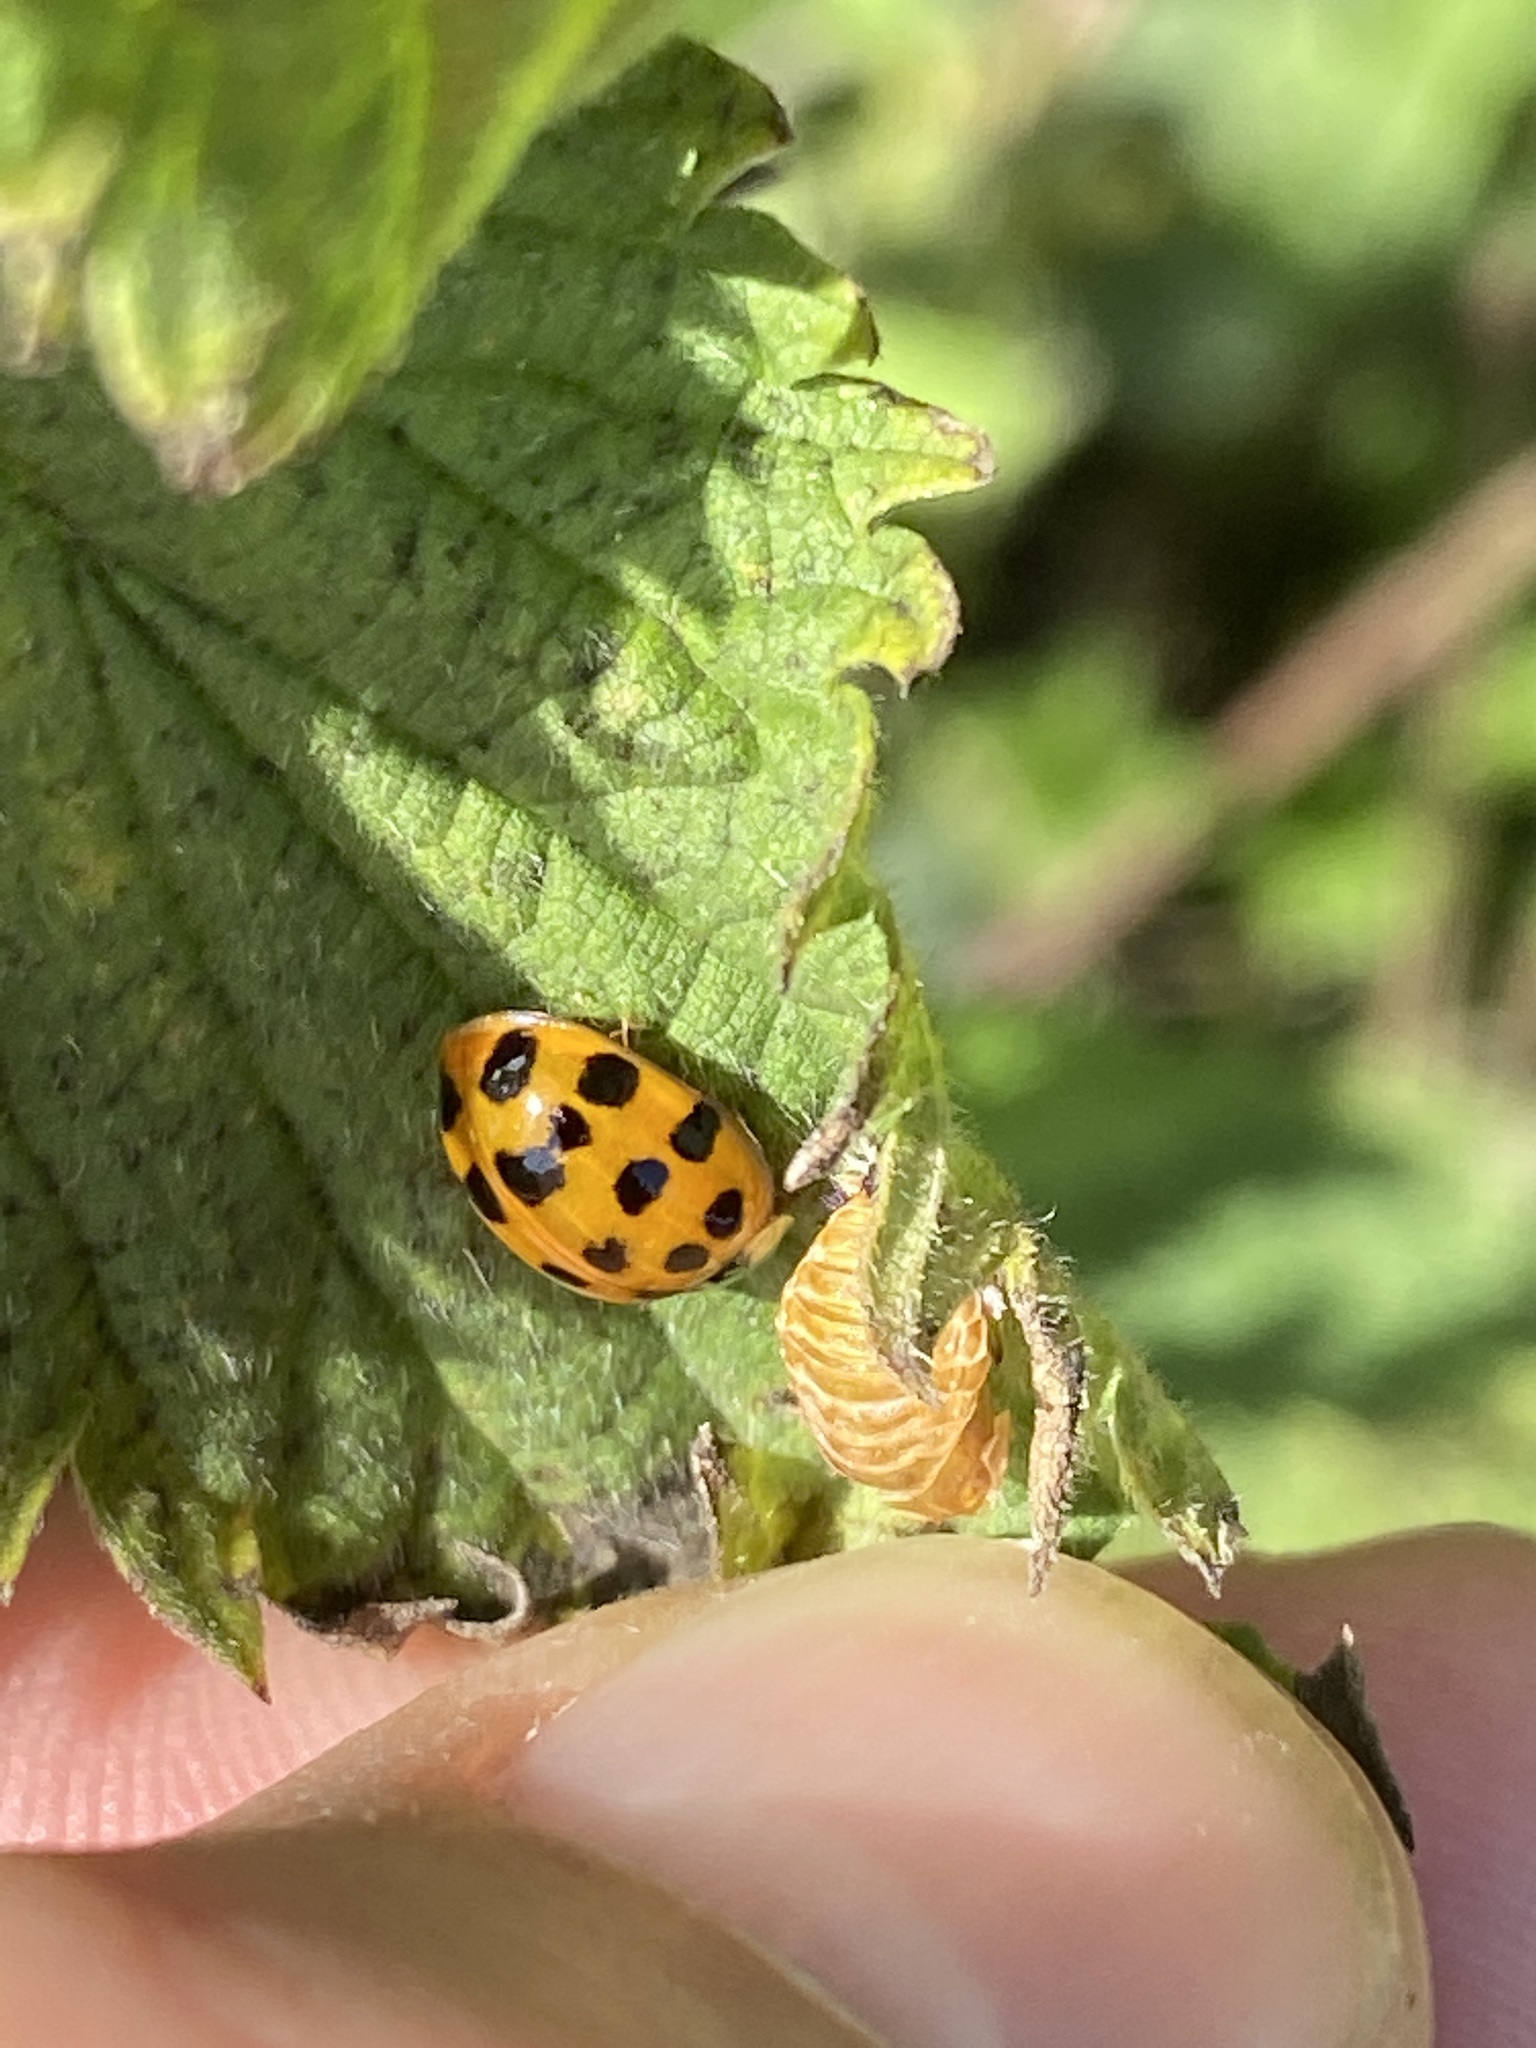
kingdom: Animalia
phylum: Arthropoda
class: Insecta
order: Coleoptera
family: Coccinellidae
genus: Harmonia
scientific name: Harmonia axyridis
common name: Harlequin ladybird
